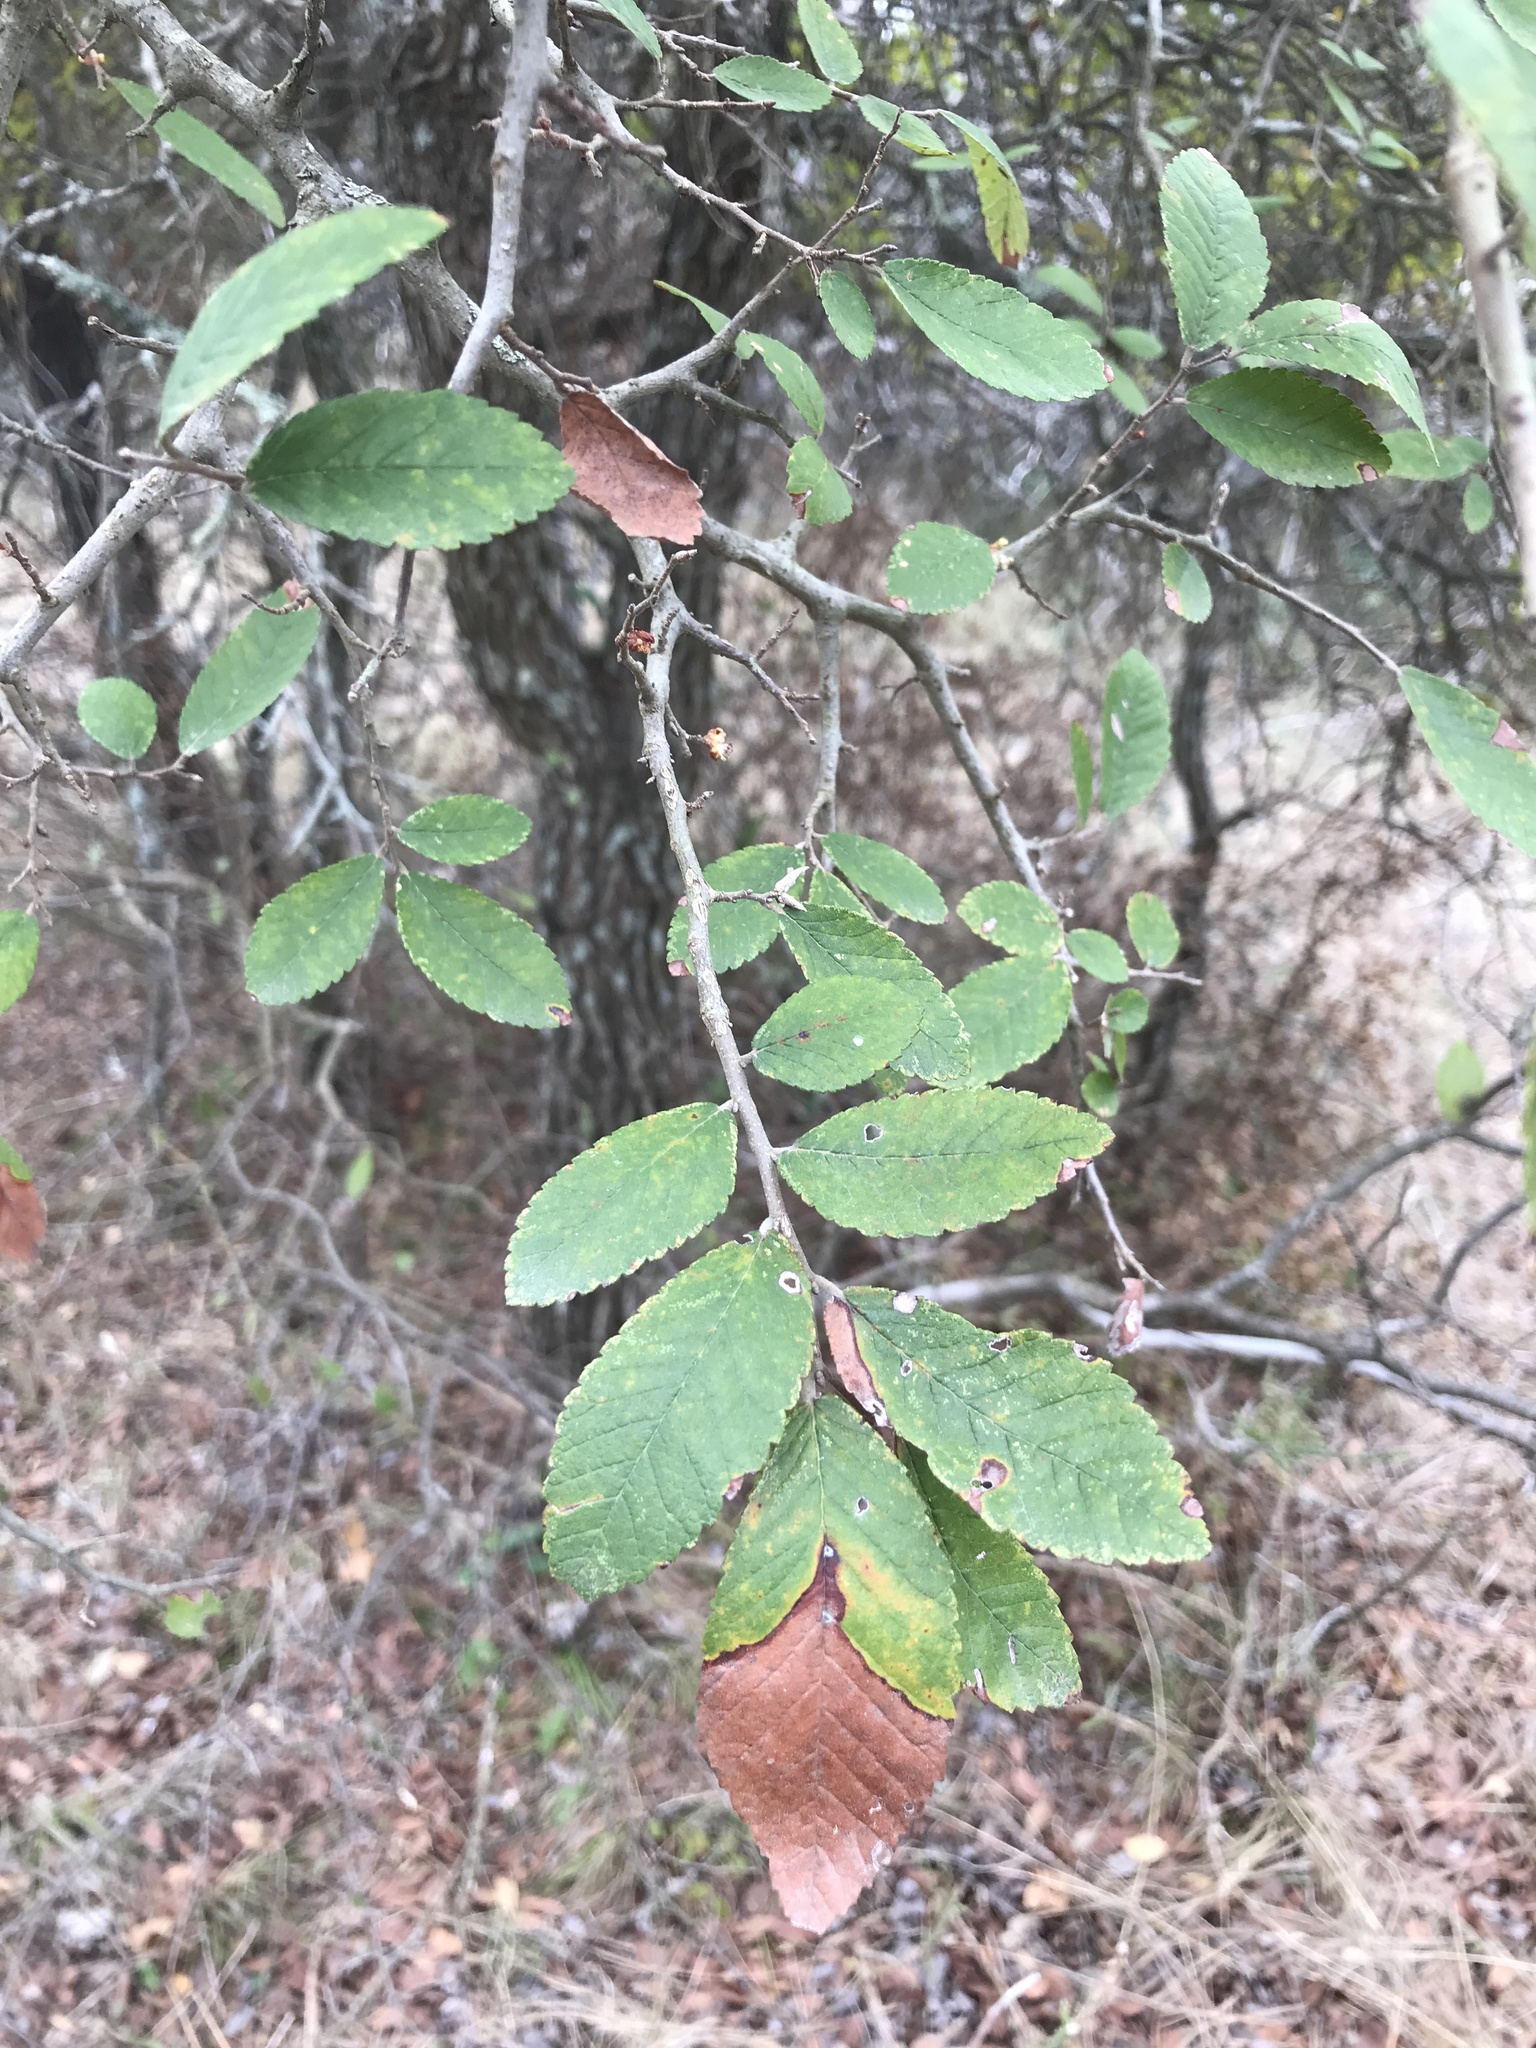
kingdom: Plantae
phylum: Tracheophyta
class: Magnoliopsida
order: Rosales
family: Ulmaceae
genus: Ulmus
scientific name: Ulmus crassifolia
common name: Basket elm
